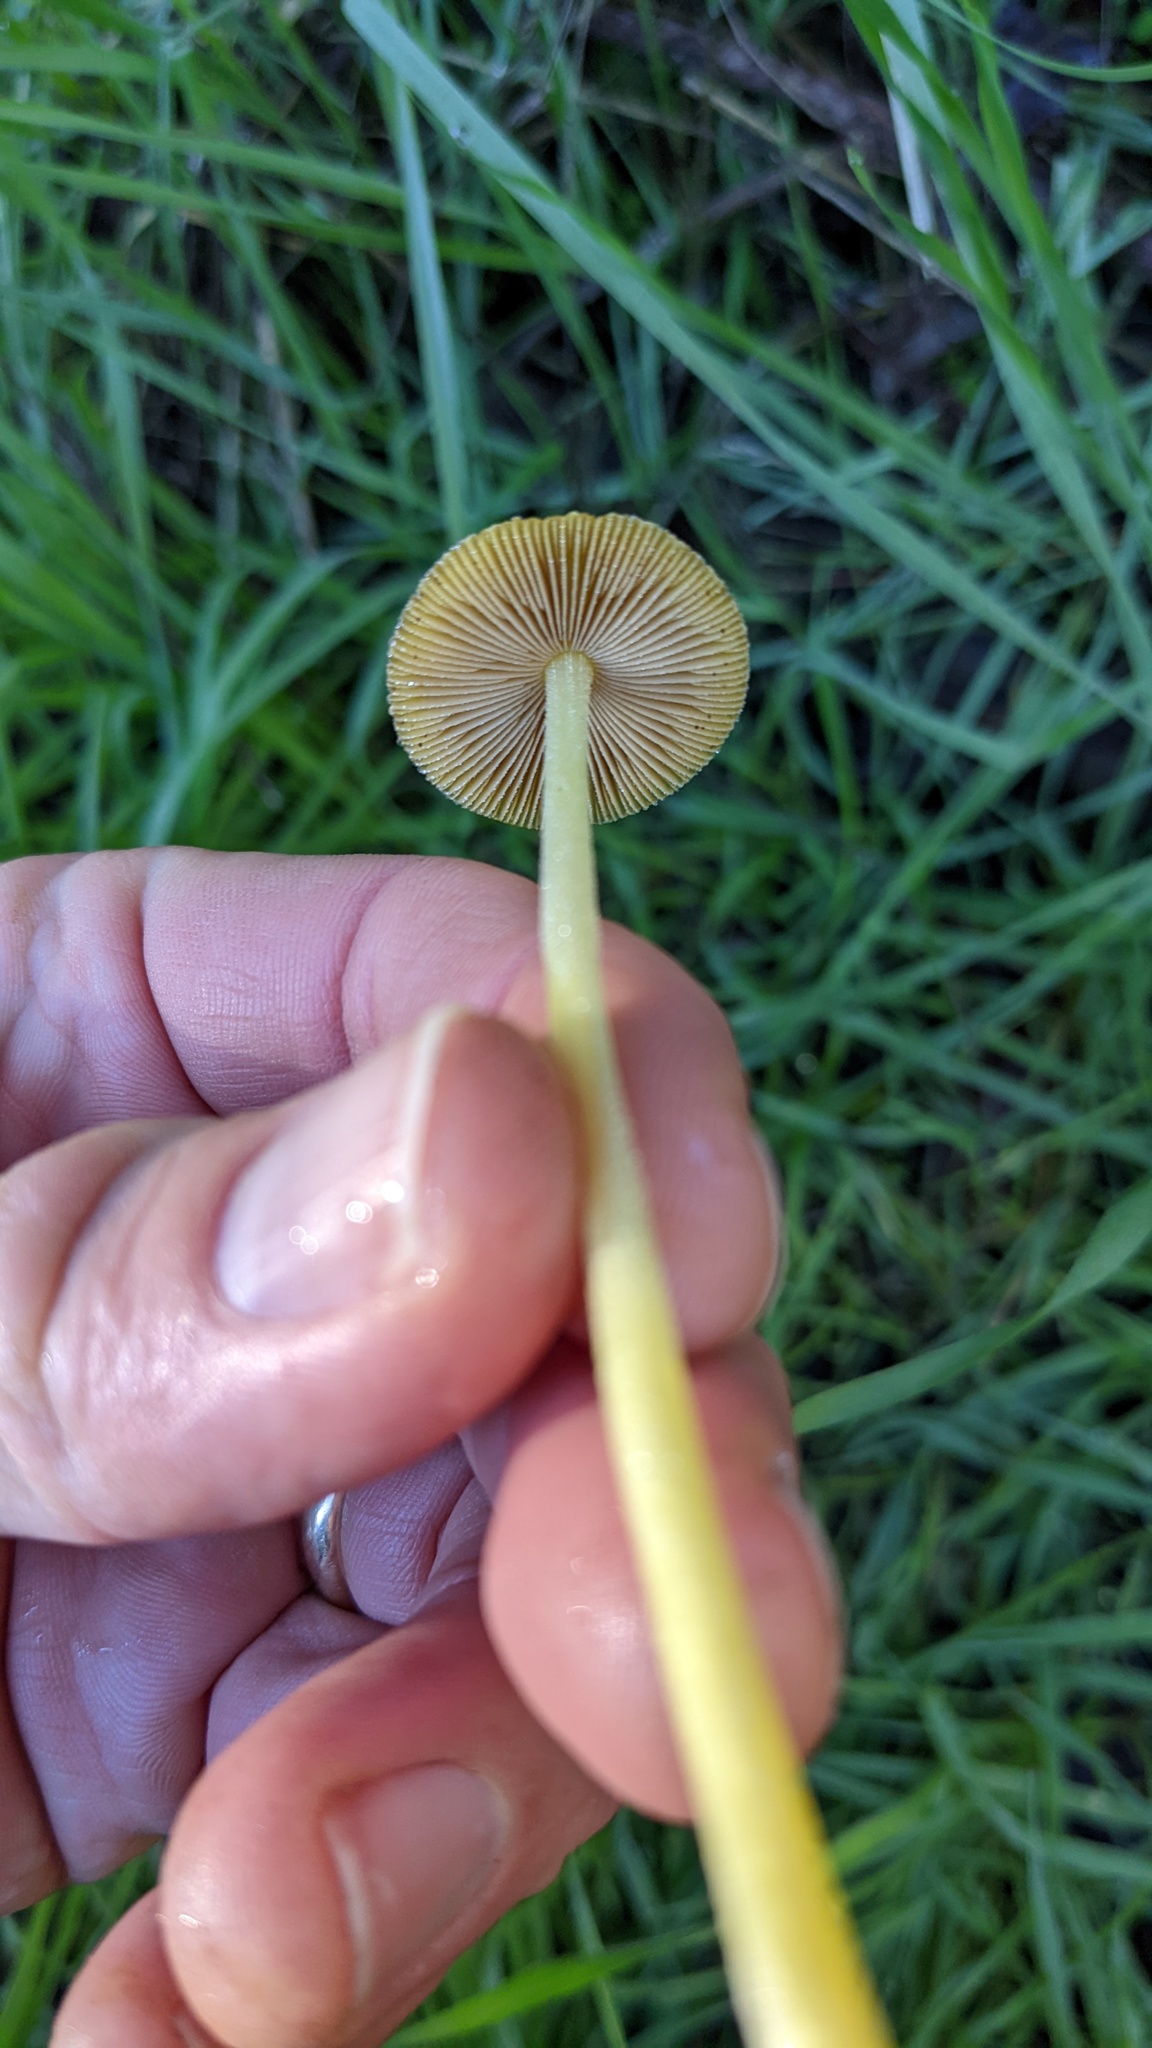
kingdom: Fungi
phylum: Basidiomycota
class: Agaricomycetes
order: Agaricales
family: Bolbitiaceae
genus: Bolbitius
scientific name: Bolbitius titubans
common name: Yellow fieldcap
